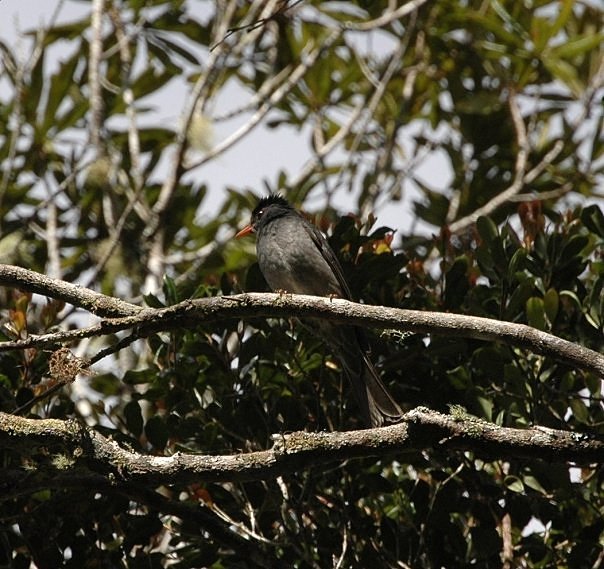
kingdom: Animalia
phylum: Chordata
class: Aves
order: Passeriformes
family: Pycnonotidae
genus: Hypsipetes
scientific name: Hypsipetes madagascariensis
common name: Malagasy bulbul
